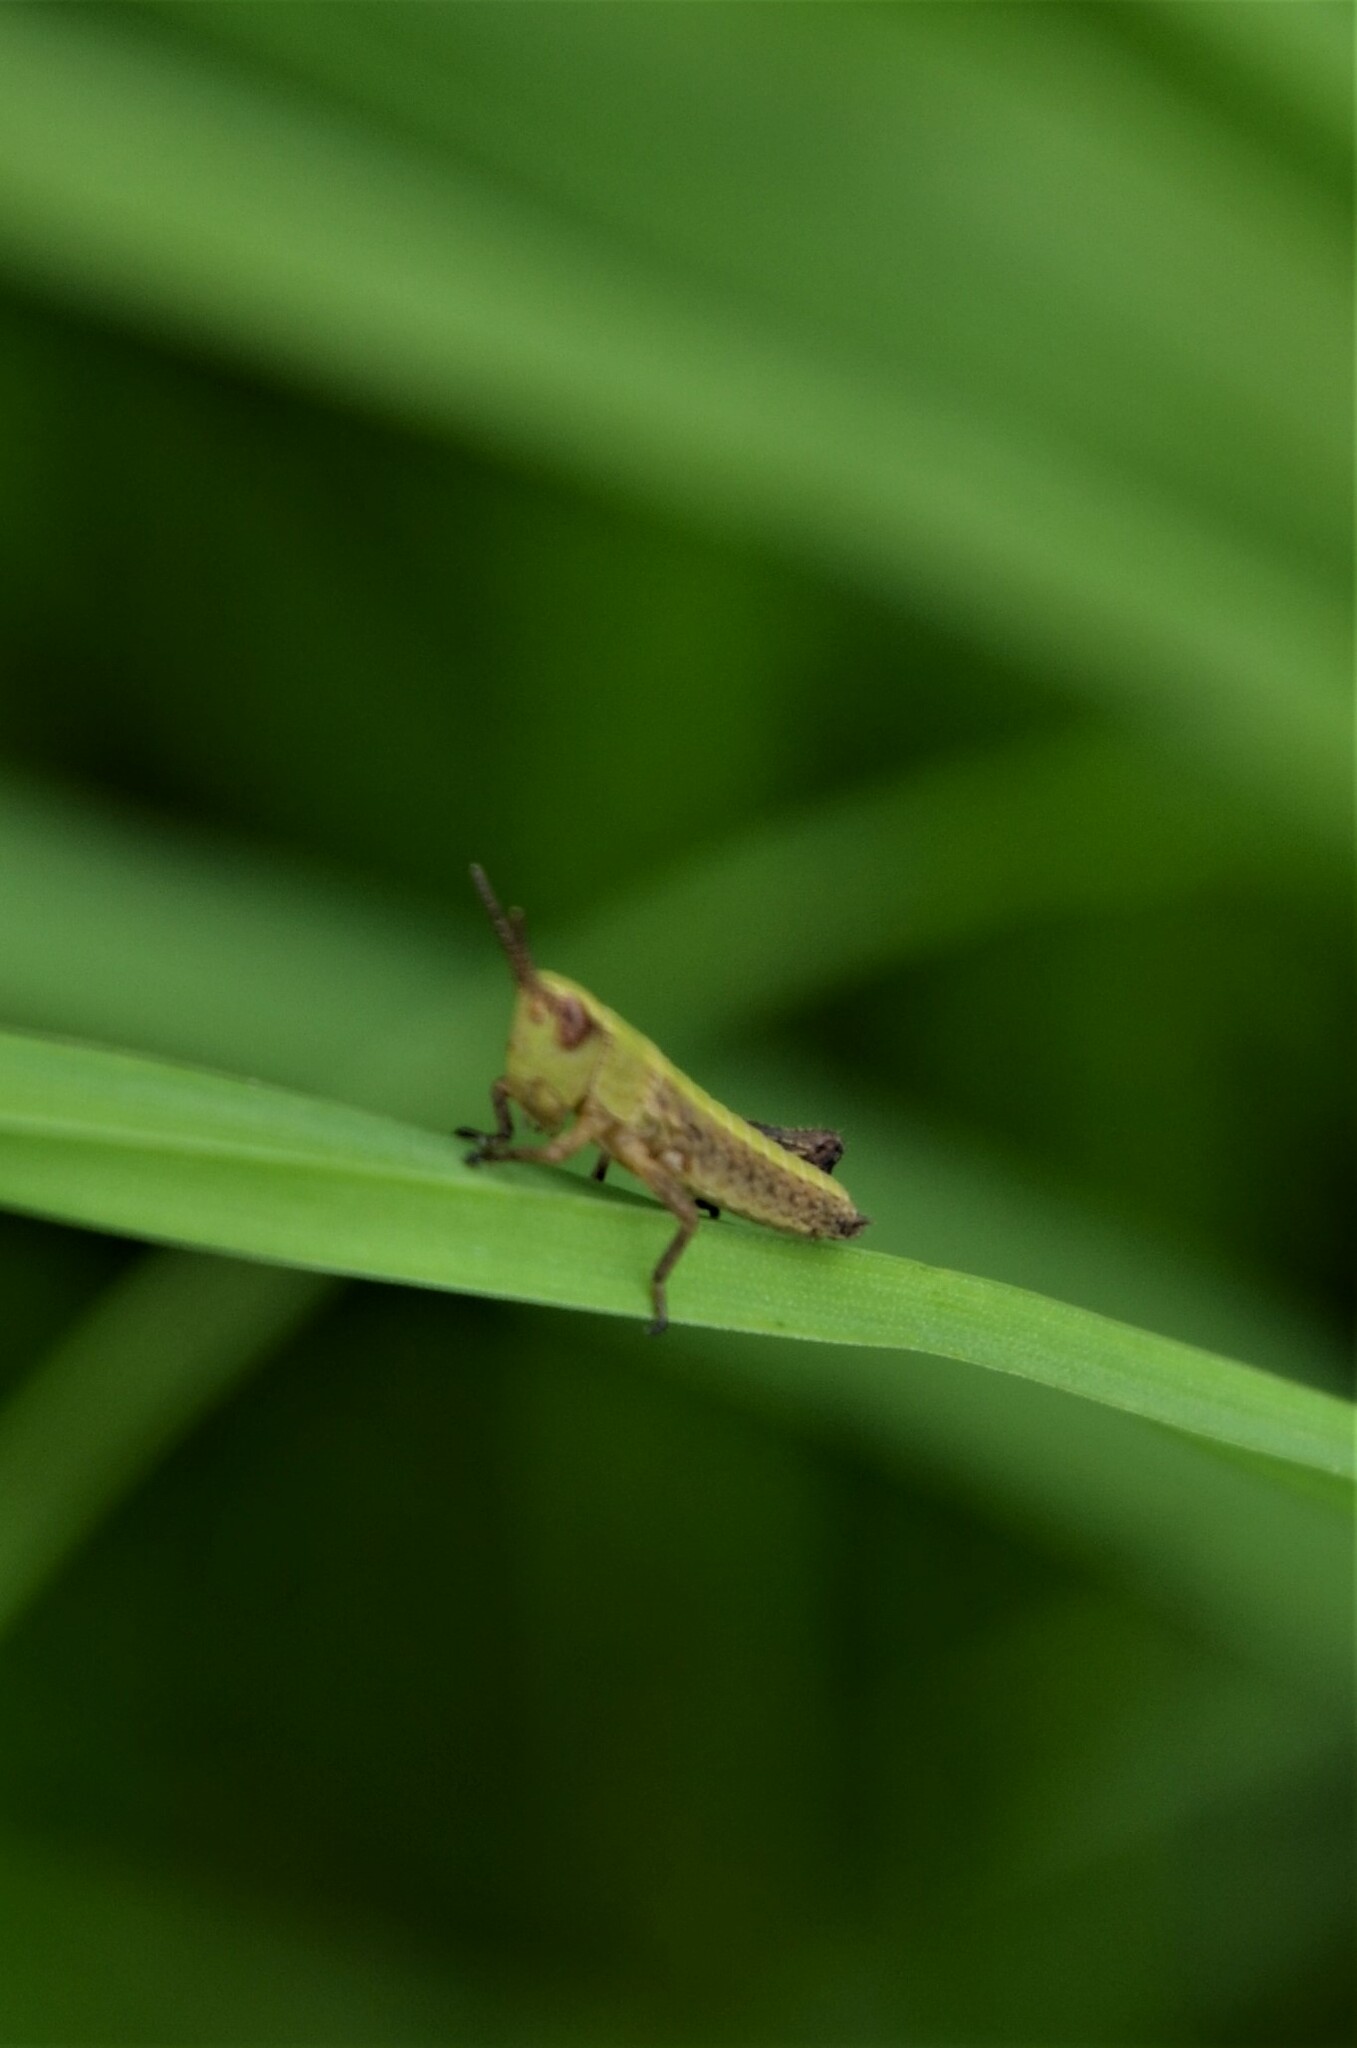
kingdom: Animalia
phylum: Arthropoda
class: Insecta
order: Orthoptera
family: Acrididae
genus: Pseudochorthippus
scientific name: Pseudochorthippus parallelus
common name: Meadow grasshopper
